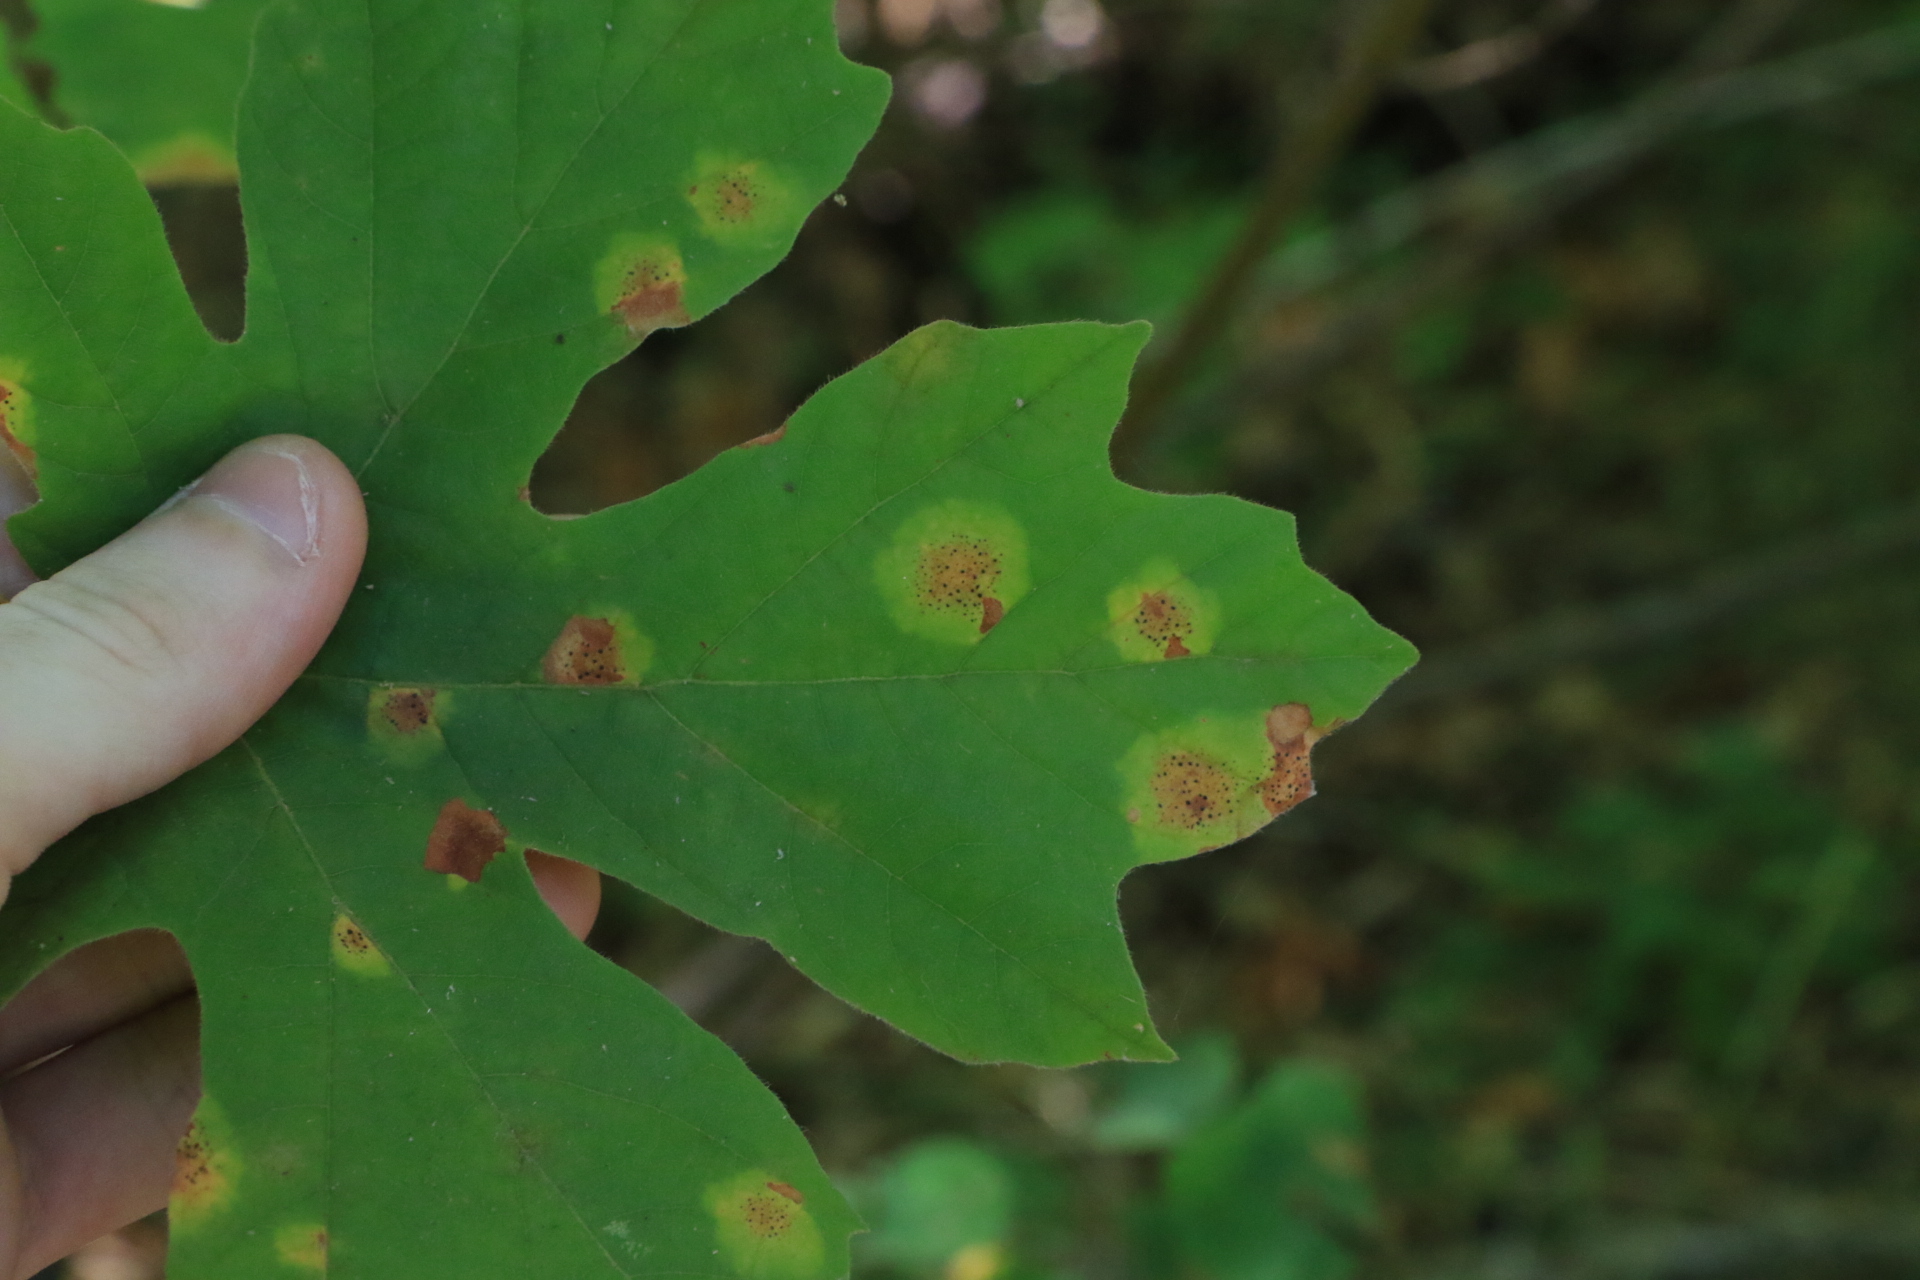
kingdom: Fungi
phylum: Ascomycota
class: Leotiomycetes
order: Rhytismatales
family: Rhytismataceae
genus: Rhytisma
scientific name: Rhytisma punctatum
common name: Speckled tar spot
